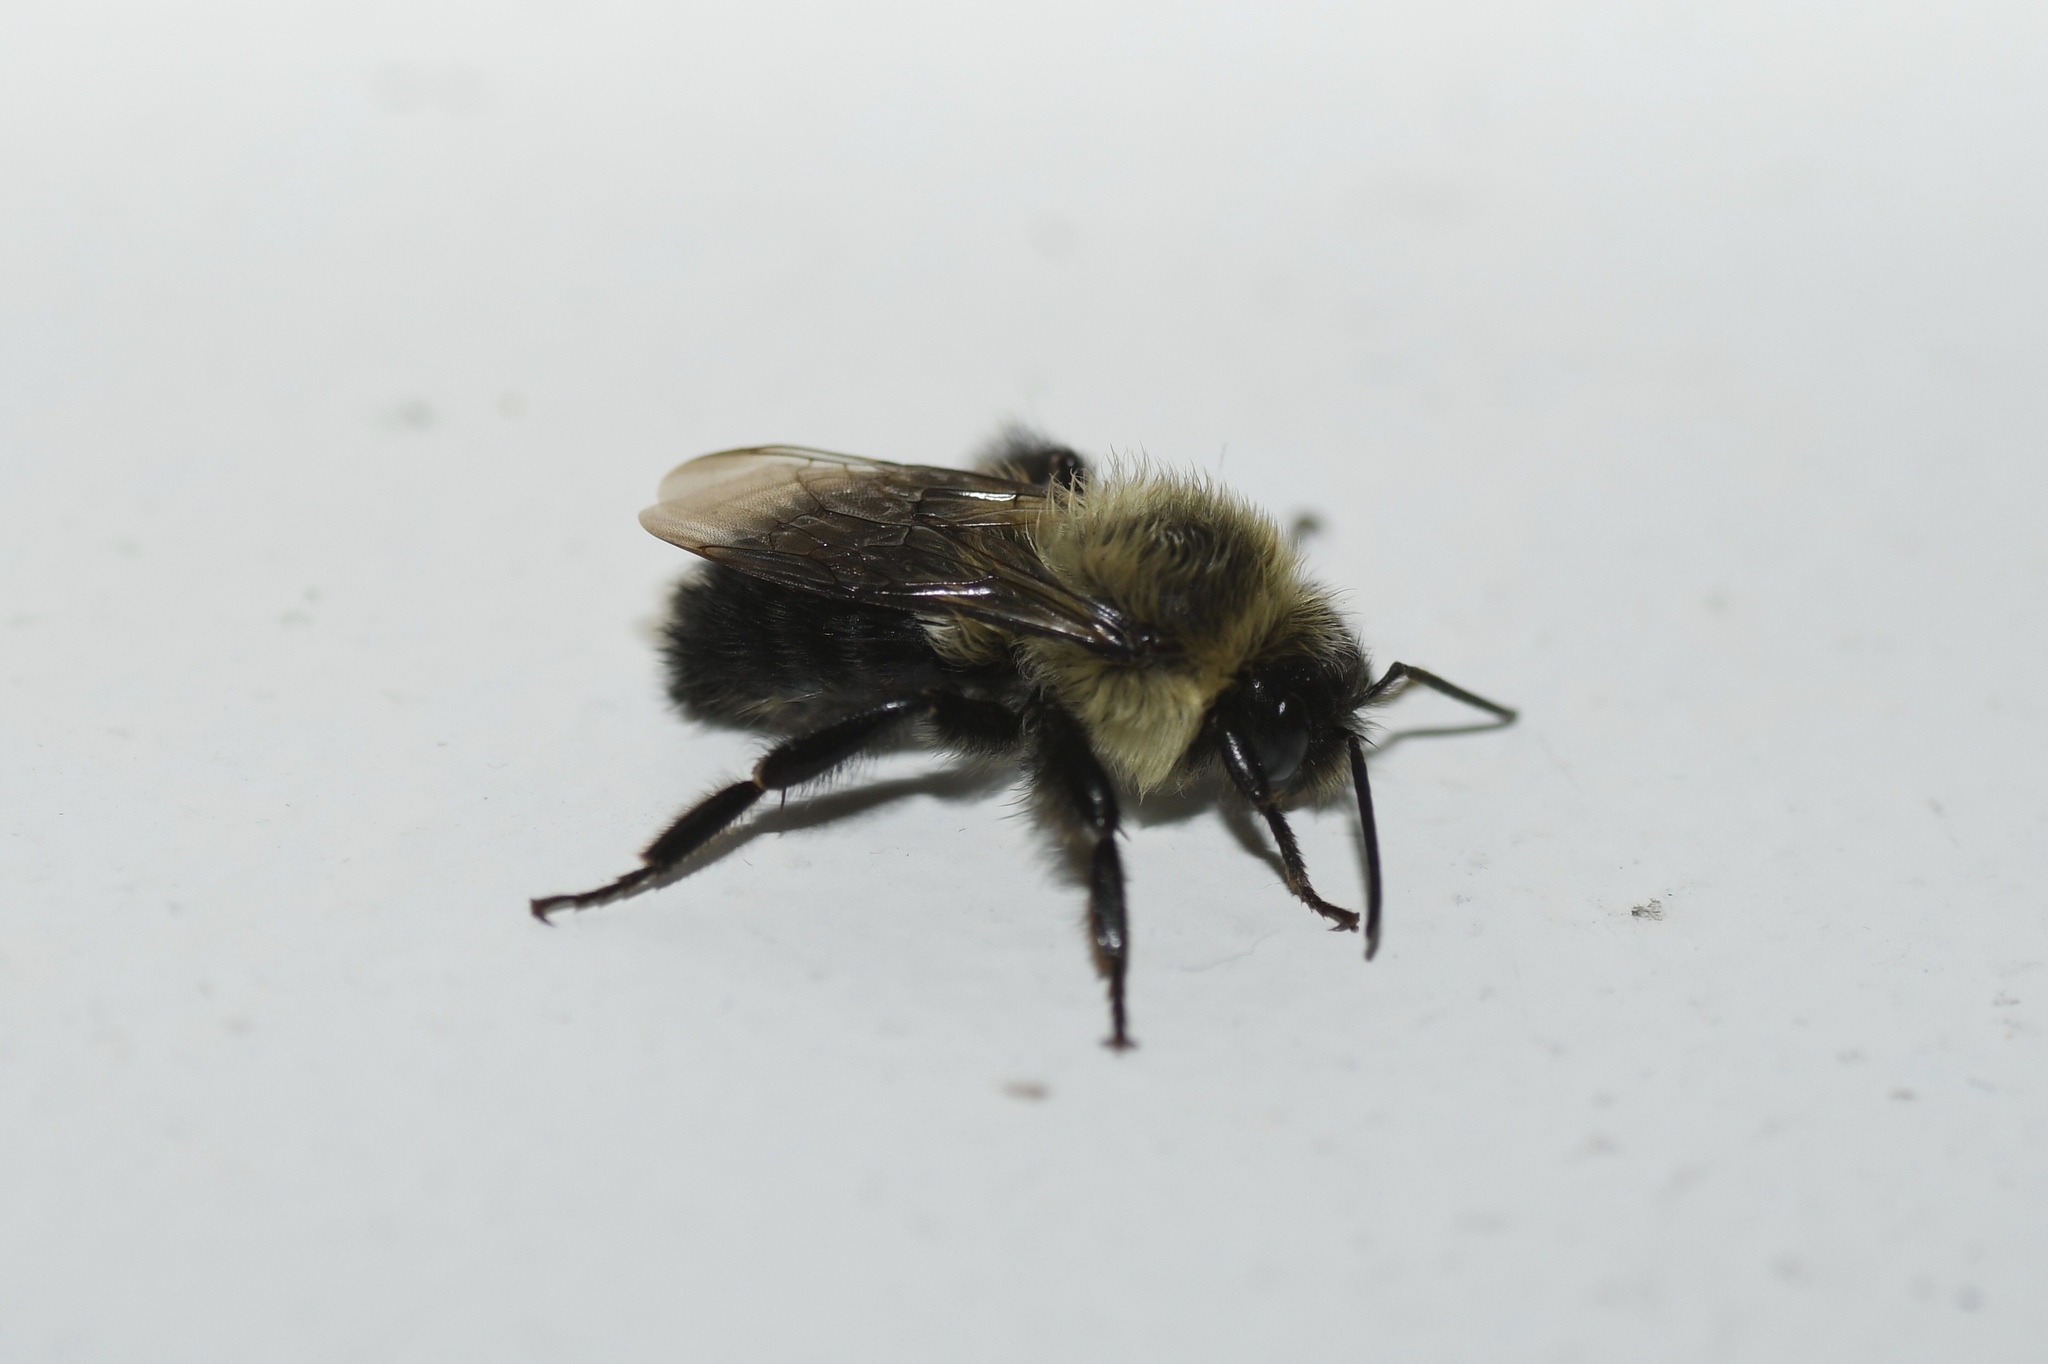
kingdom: Animalia
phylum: Arthropoda
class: Insecta
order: Hymenoptera
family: Apidae
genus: Bombus
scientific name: Bombus impatiens
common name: Common eastern bumble bee
